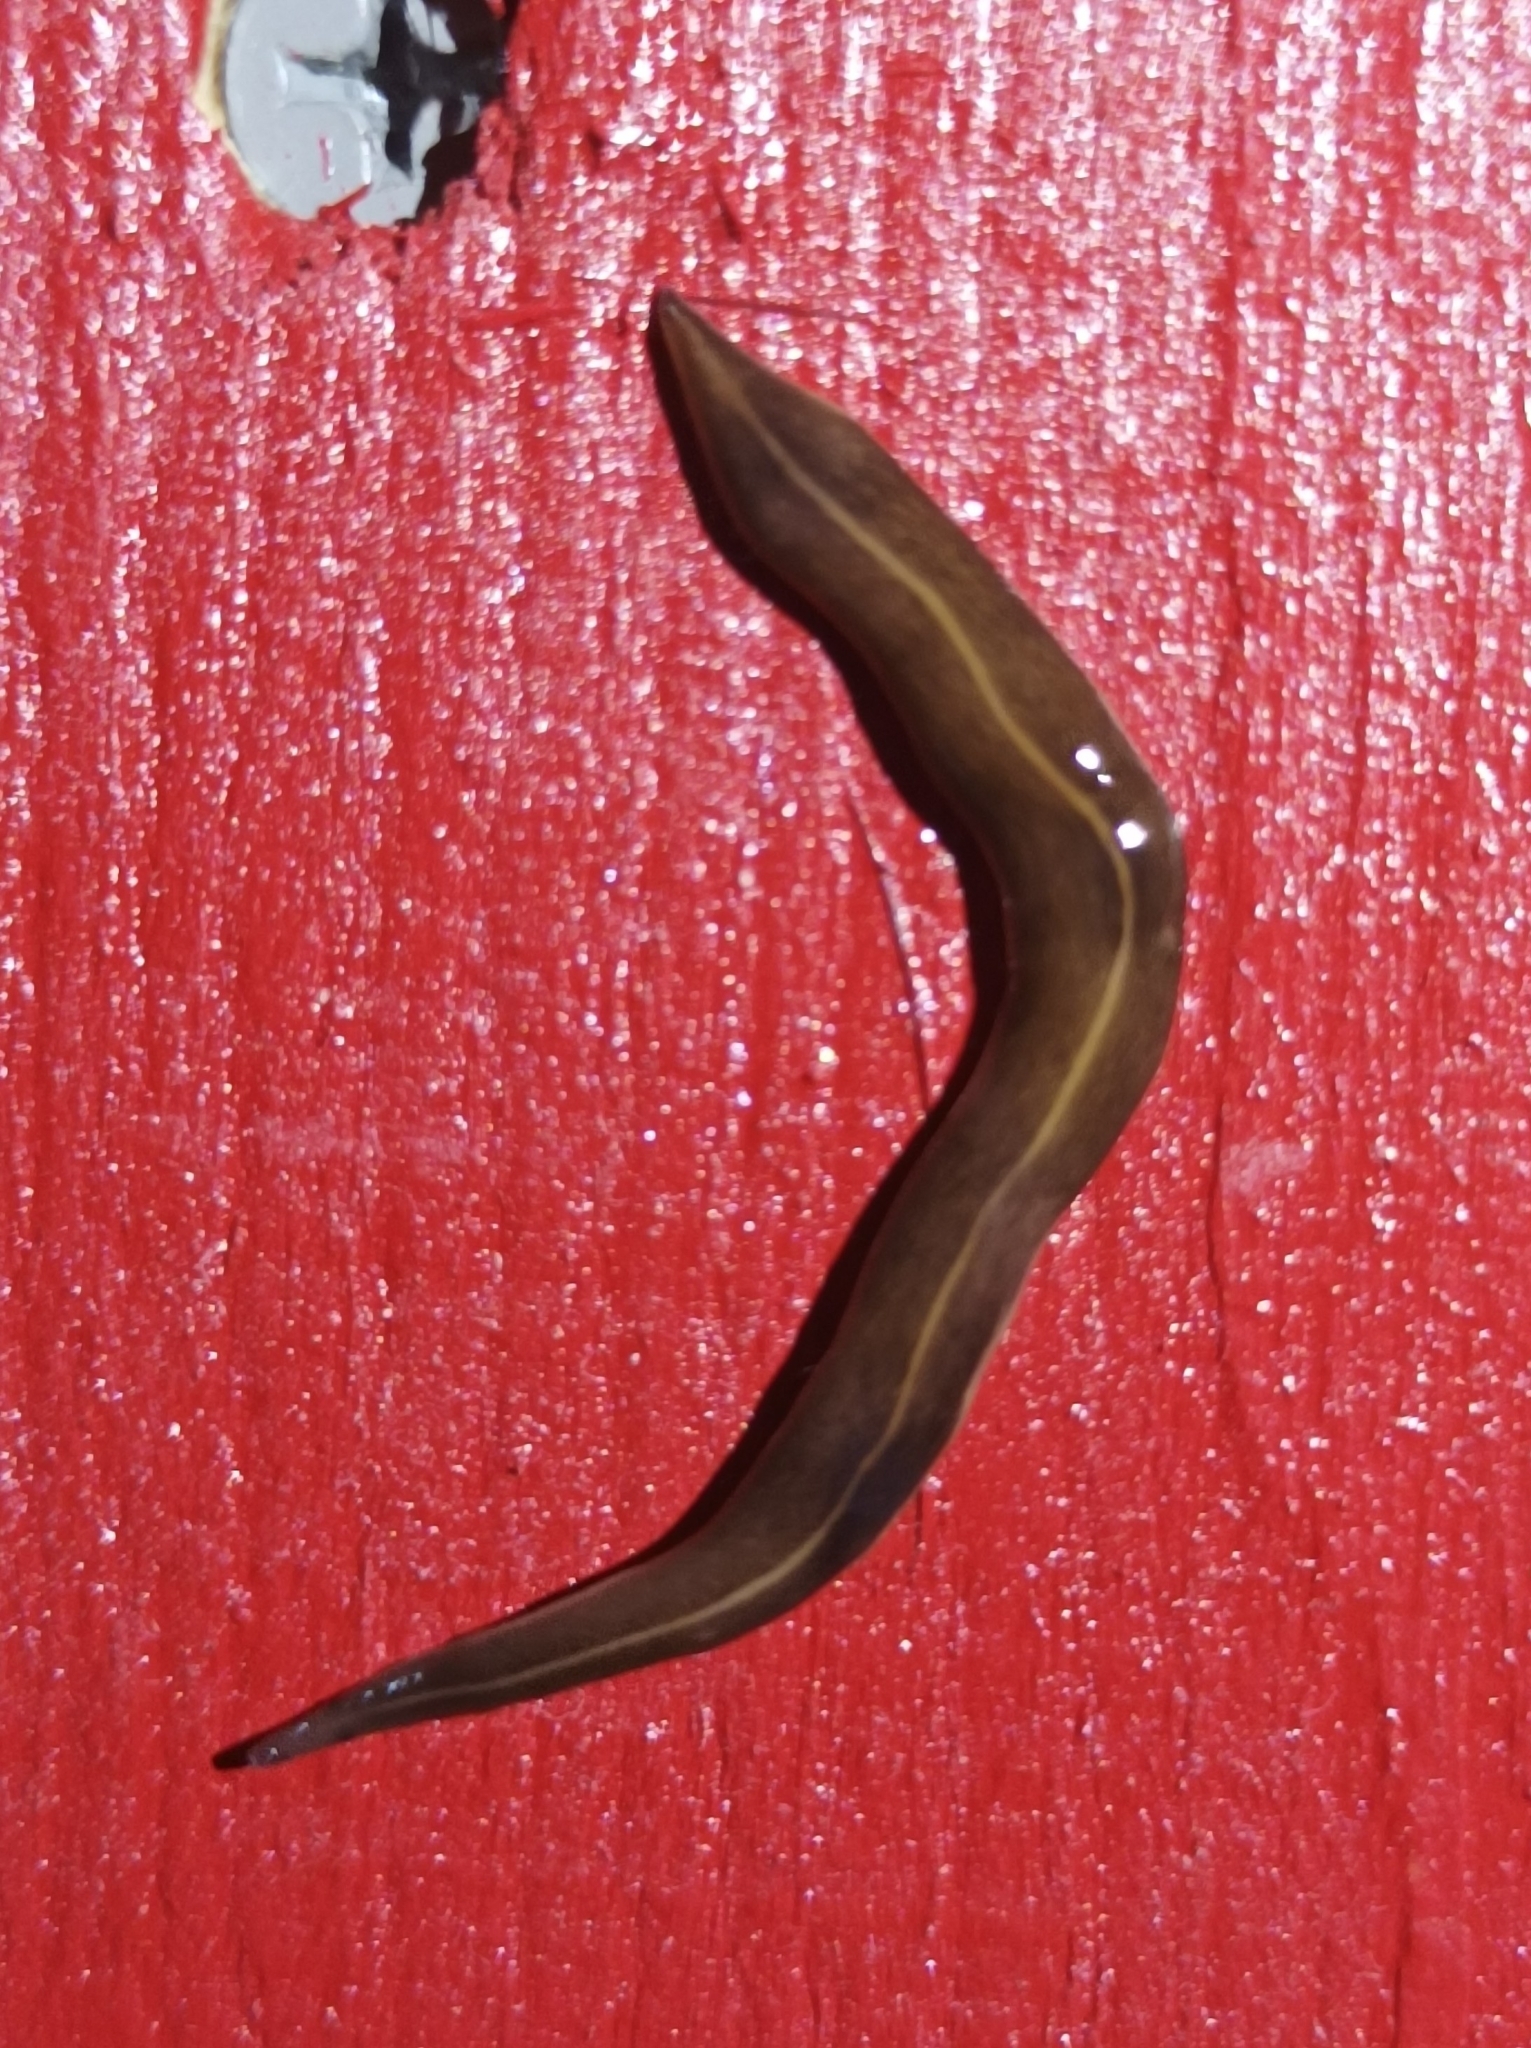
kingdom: Animalia
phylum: Platyhelminthes
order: Tricladida
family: Geoplanidae
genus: Platydemus
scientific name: Platydemus manokwari
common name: New guinea flatworm
